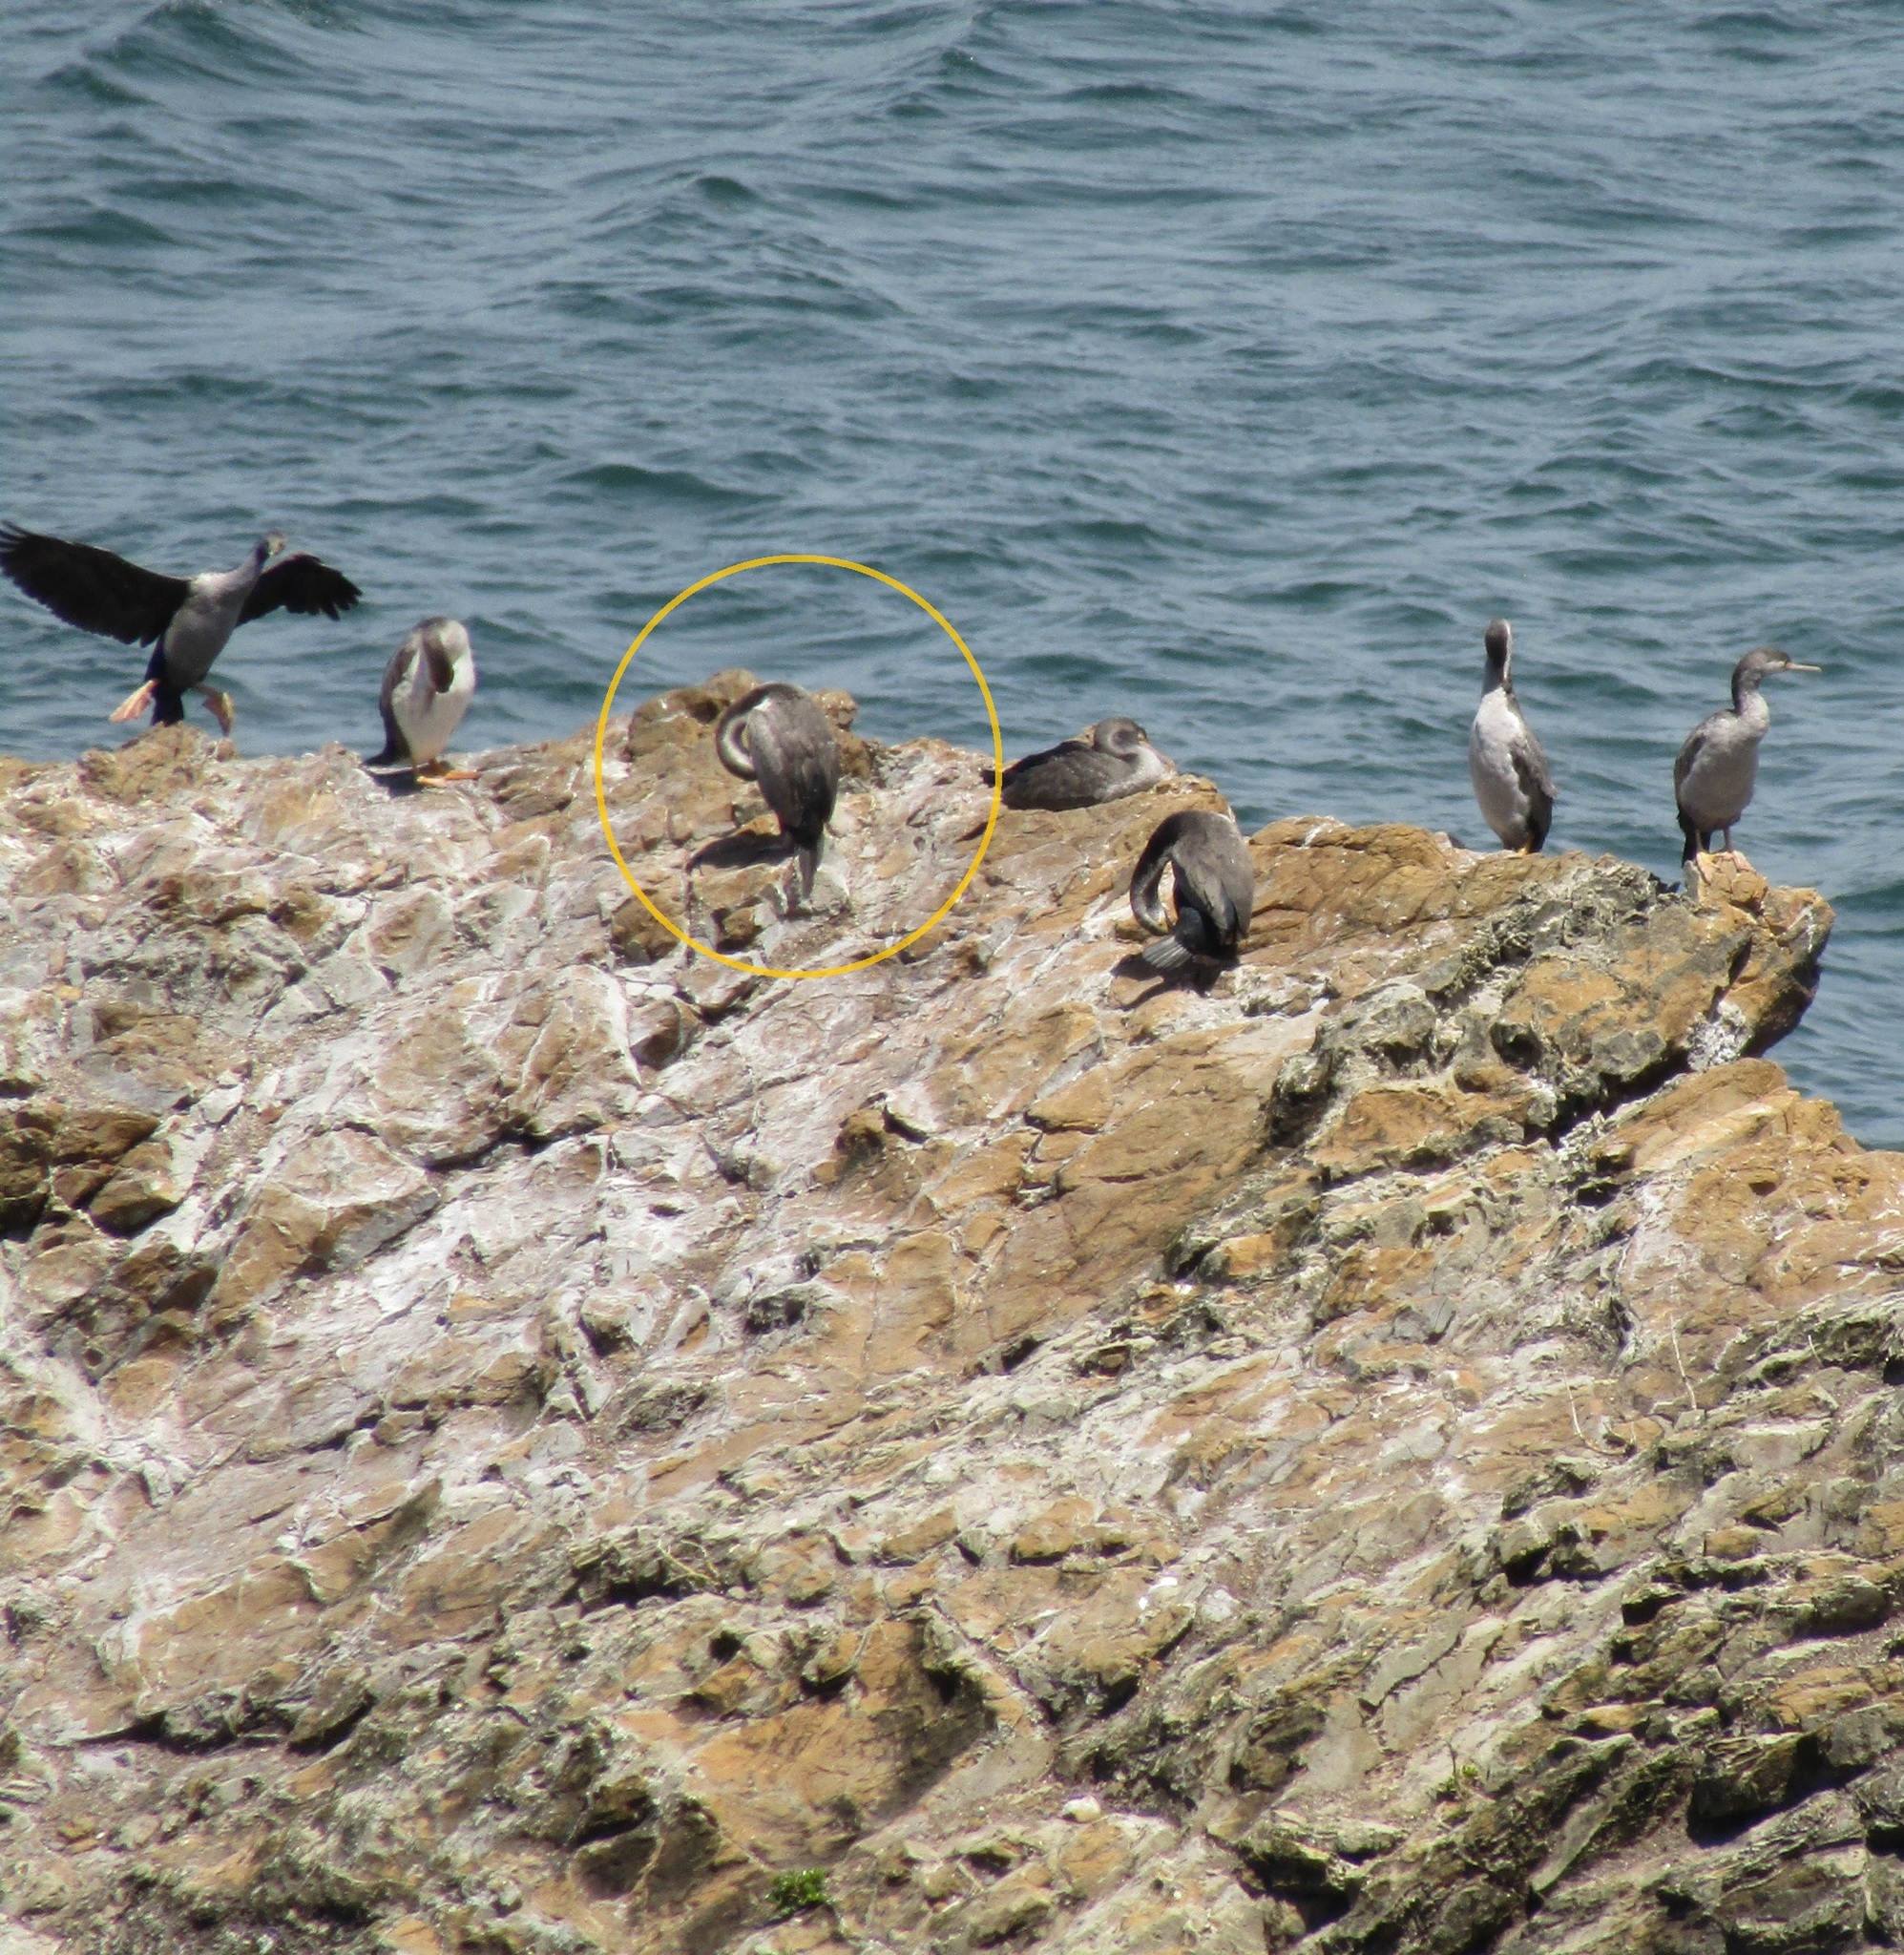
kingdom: Animalia
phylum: Chordata
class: Aves
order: Suliformes
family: Phalacrocoracidae
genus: Phalacrocorax
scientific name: Phalacrocorax punctatus
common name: Spotted shag
